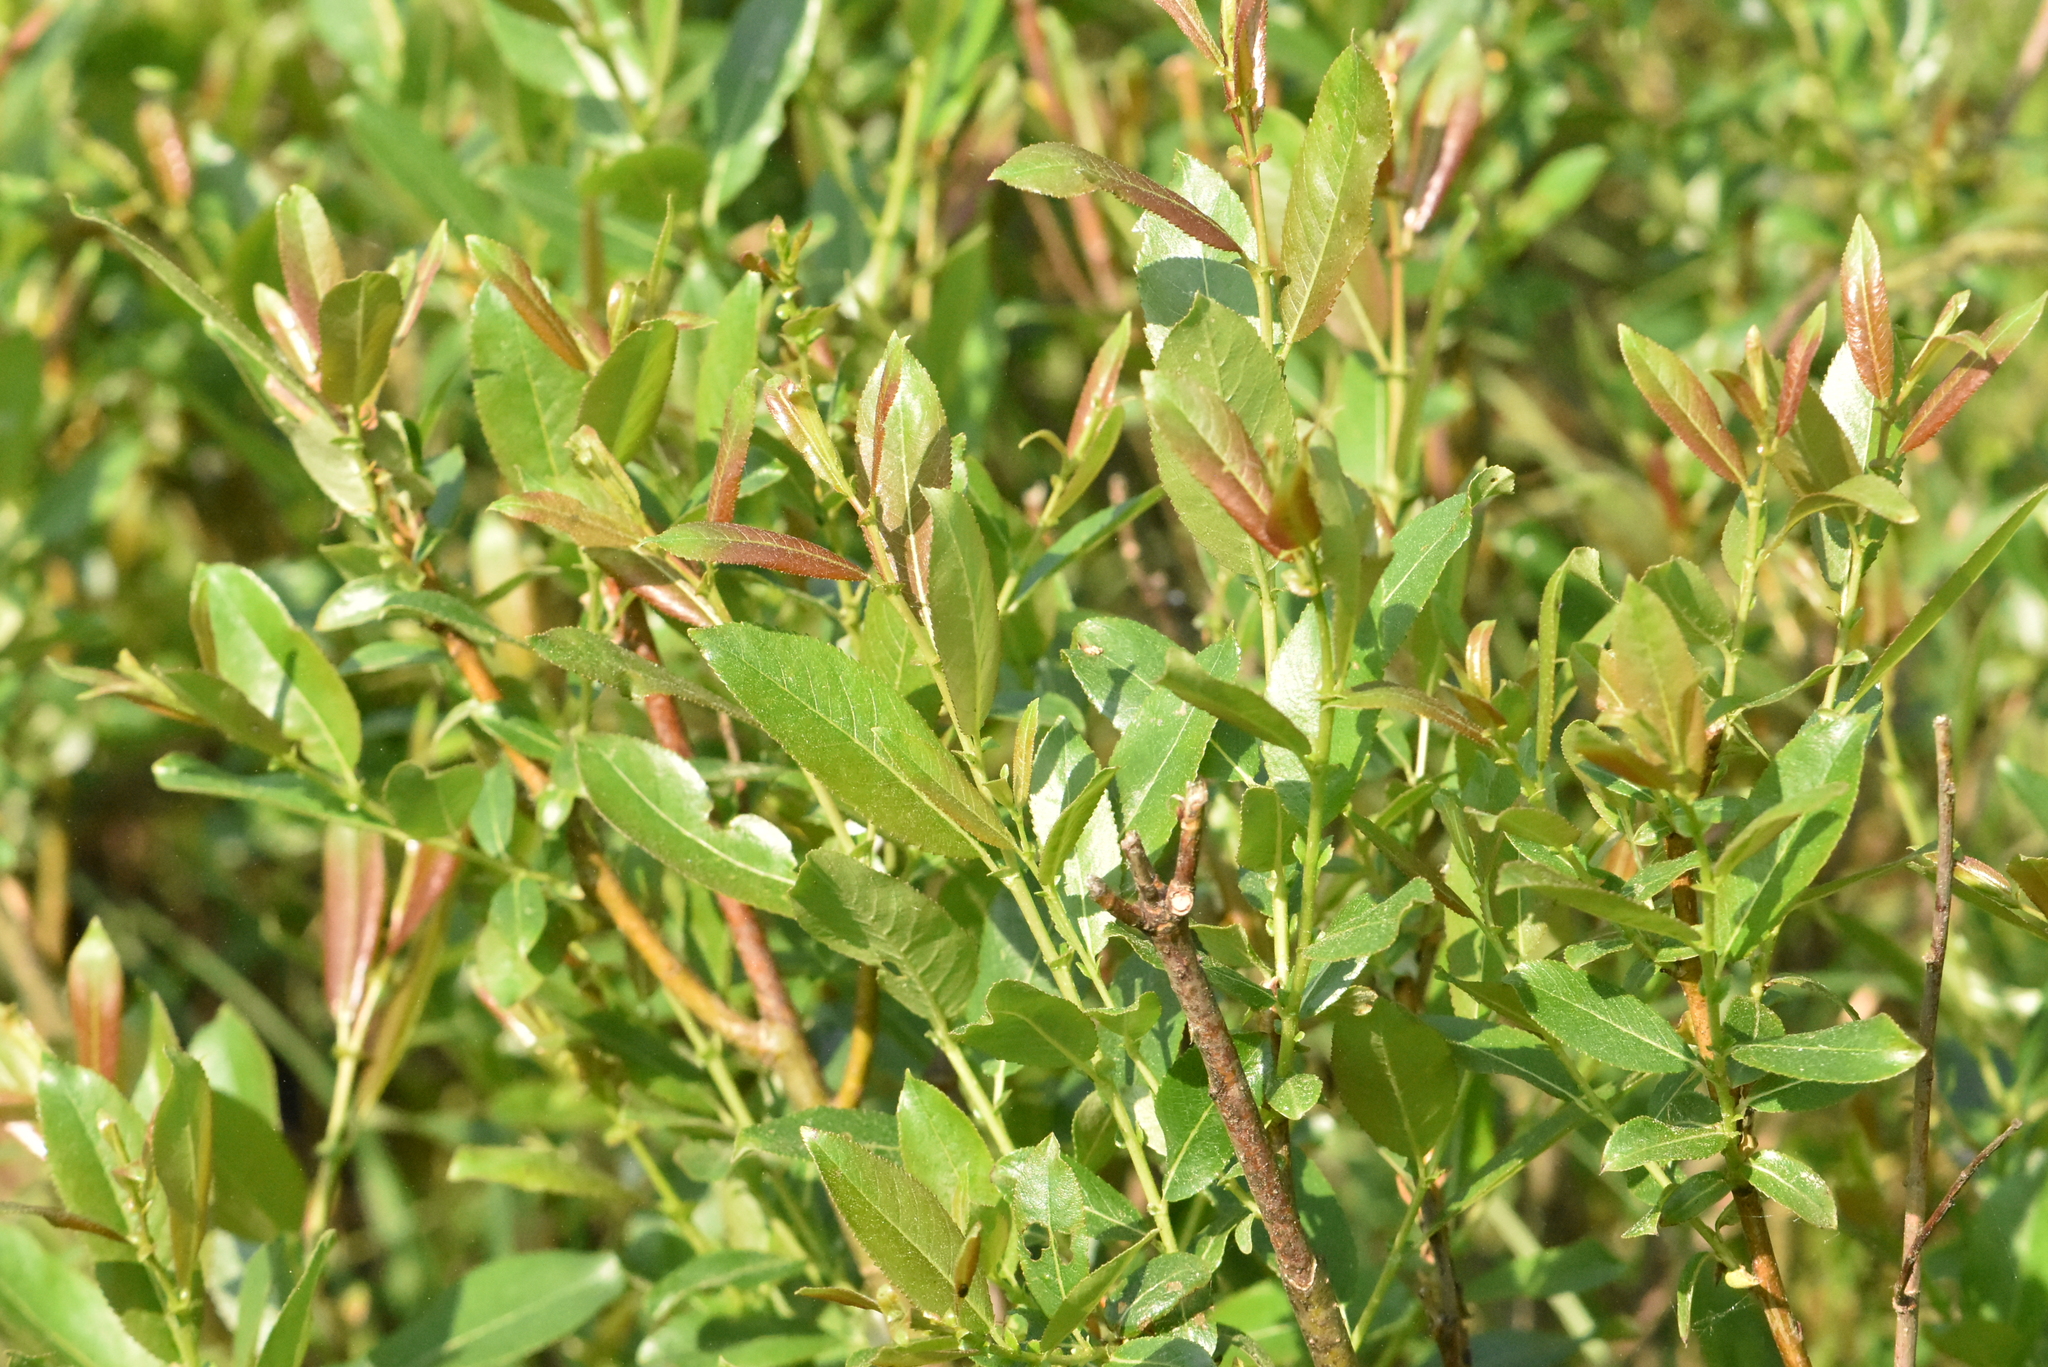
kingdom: Plantae
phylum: Tracheophyta
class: Magnoliopsida
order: Malpighiales
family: Salicaceae
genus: Salix
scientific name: Salix triandra
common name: Almond willow
